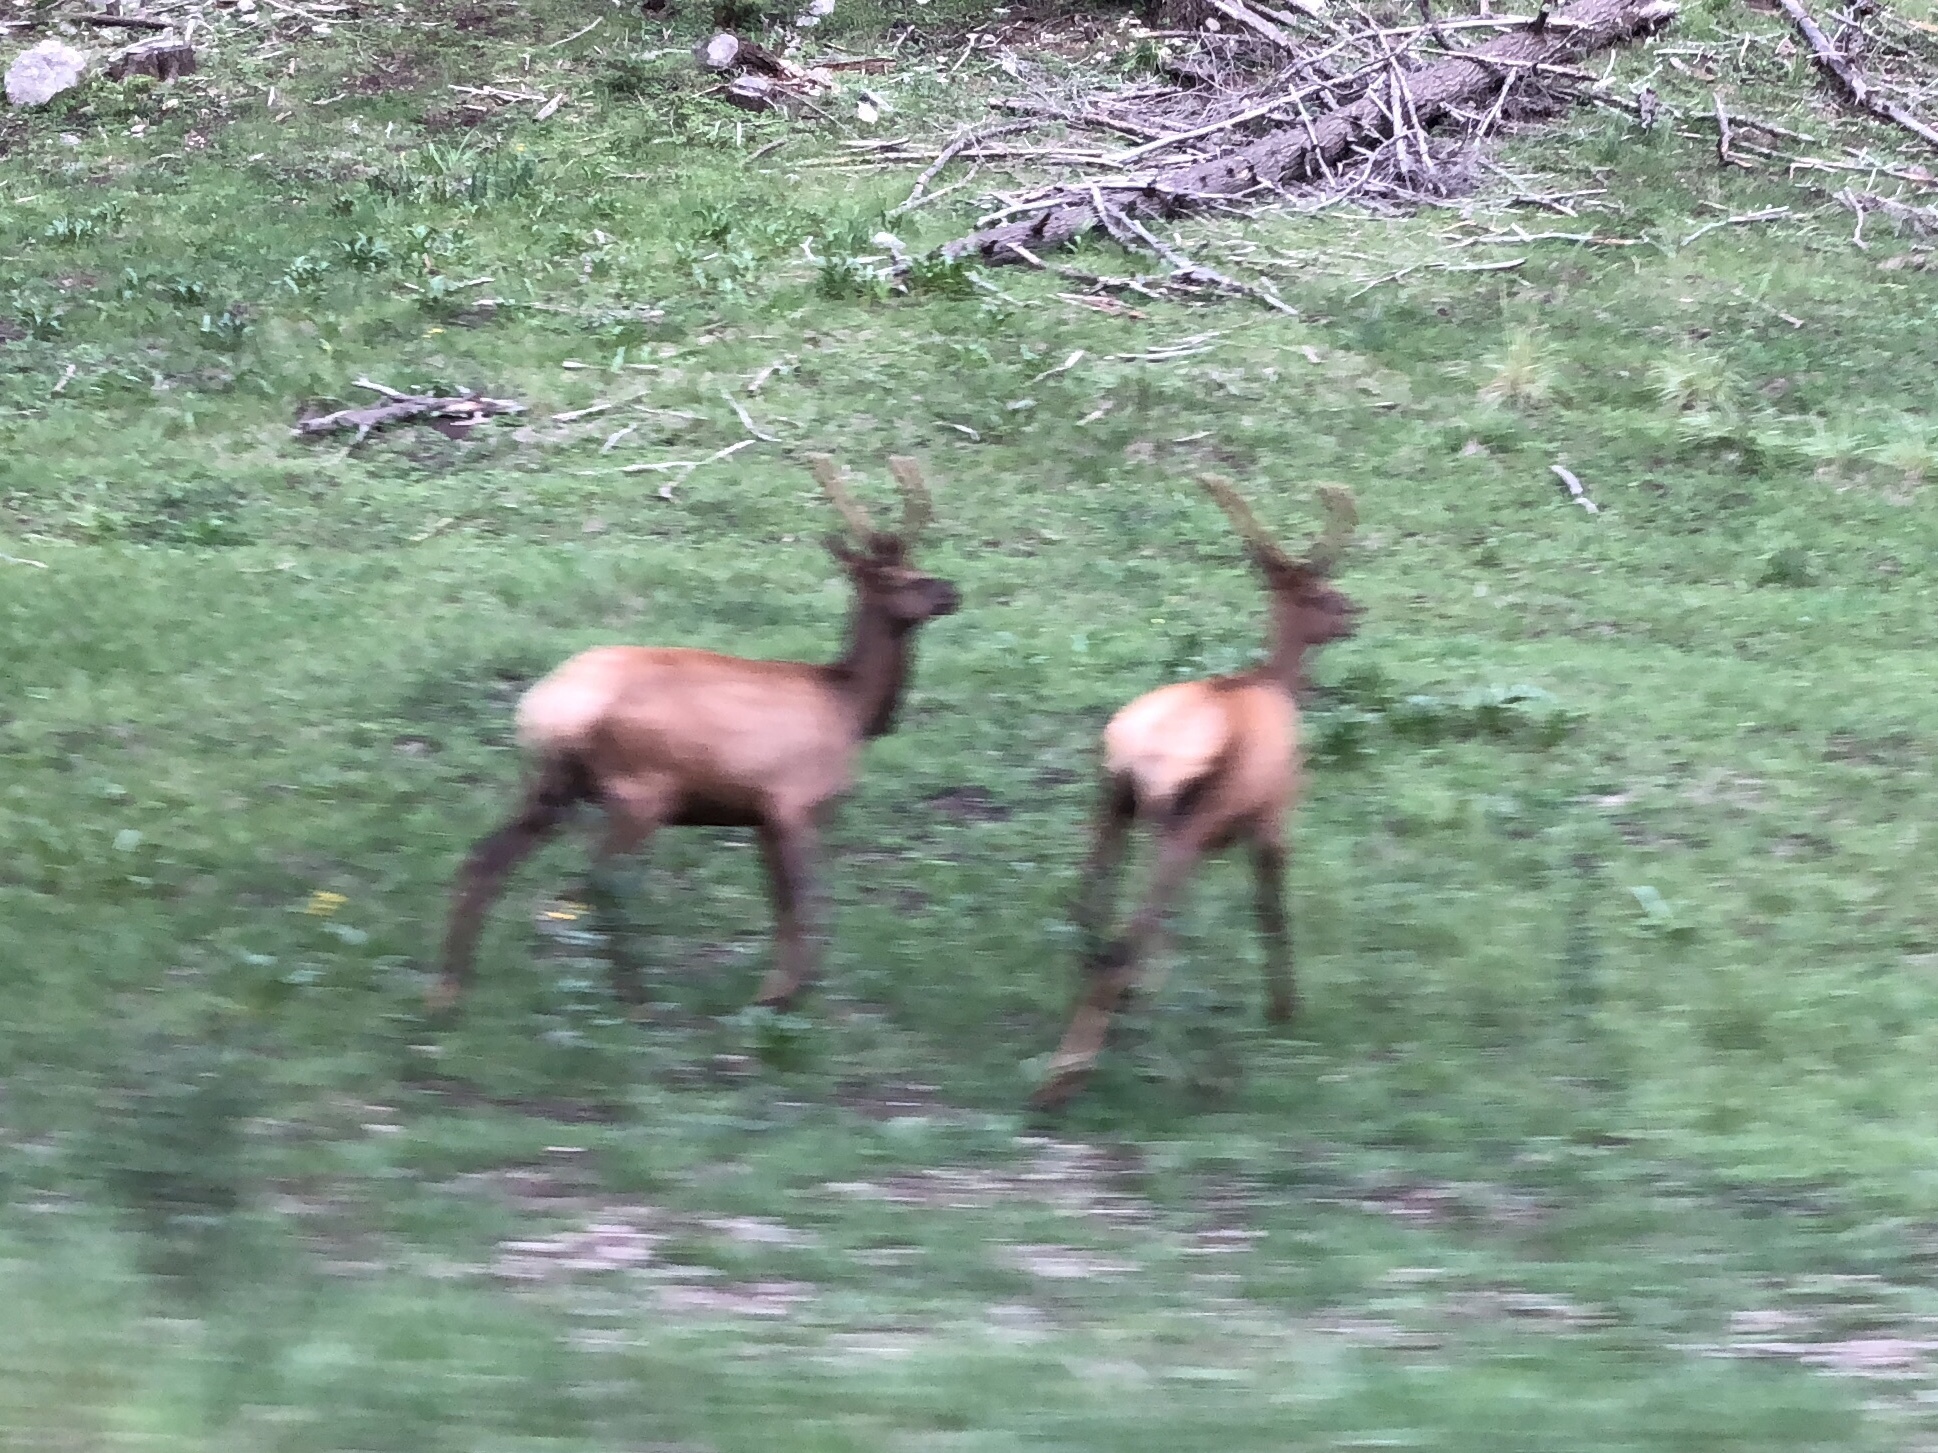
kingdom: Animalia
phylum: Chordata
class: Mammalia
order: Artiodactyla
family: Cervidae
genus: Cervus
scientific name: Cervus elaphus
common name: Red deer
